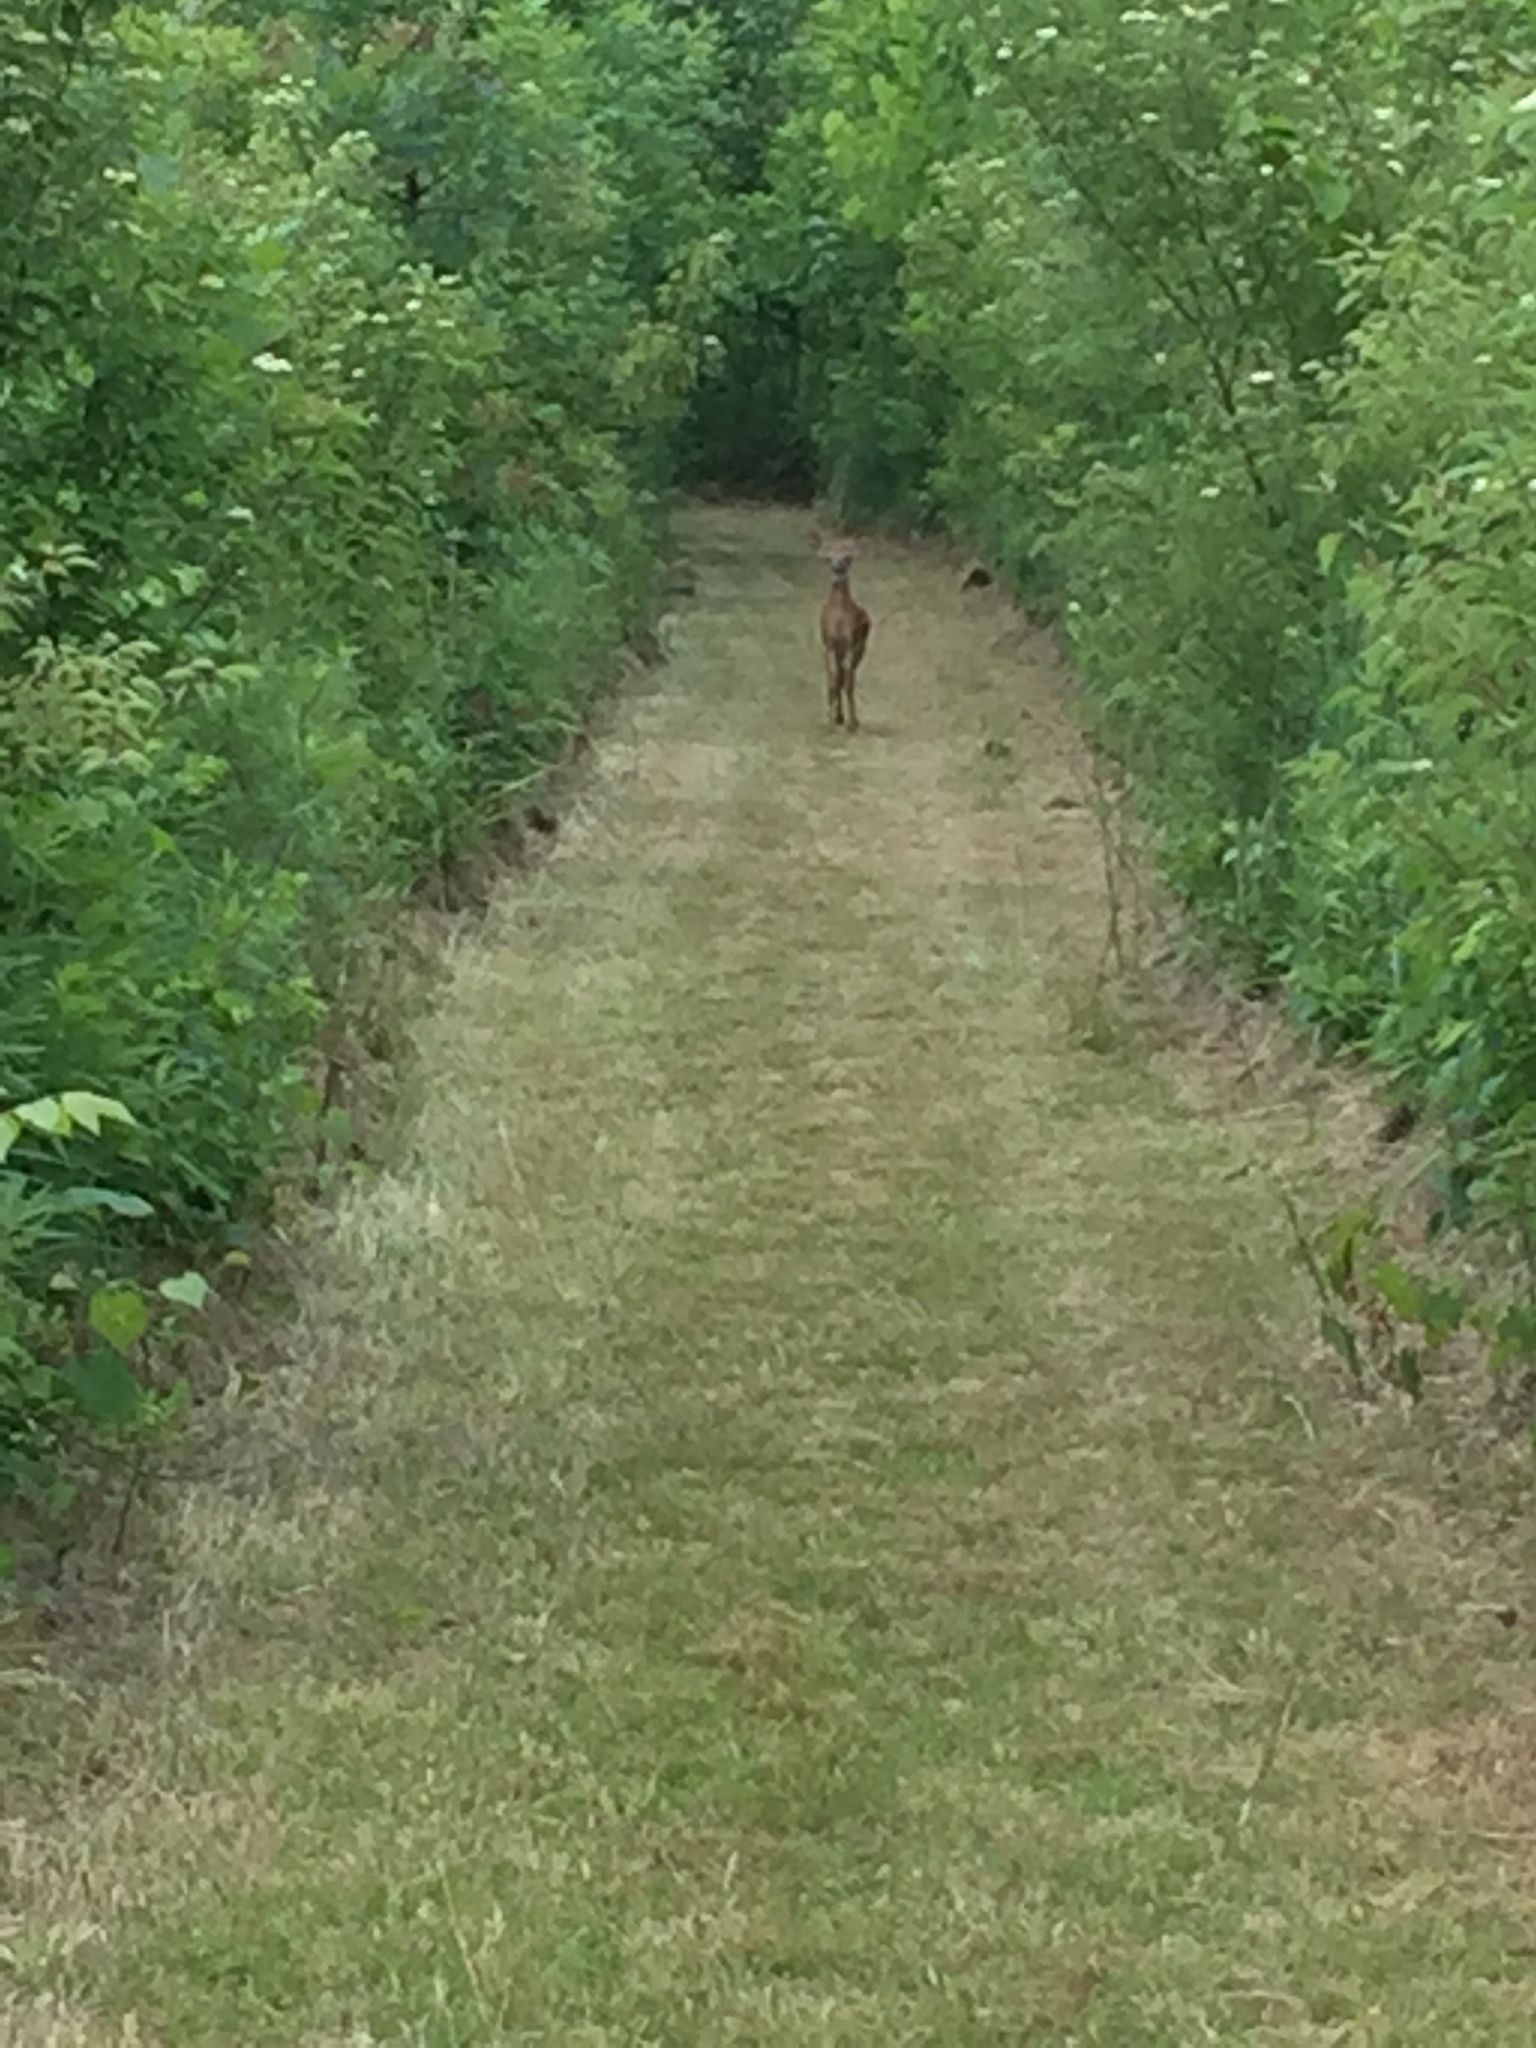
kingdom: Animalia
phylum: Chordata
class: Mammalia
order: Artiodactyla
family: Cervidae
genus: Odocoileus
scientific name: Odocoileus virginianus
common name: White-tailed deer
